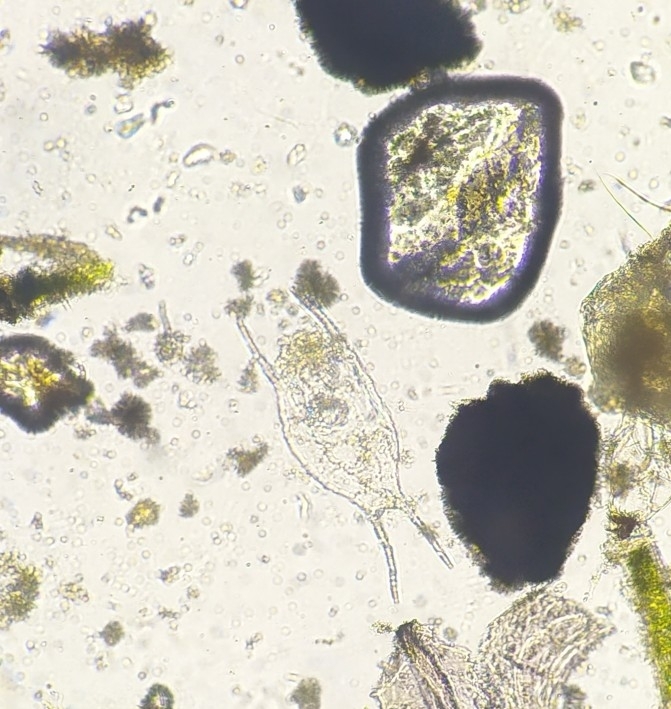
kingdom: Animalia
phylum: Rotifera
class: Eurotatoria
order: Ploima
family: Brachionidae
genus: Brachionus
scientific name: Brachionus diversicornis
